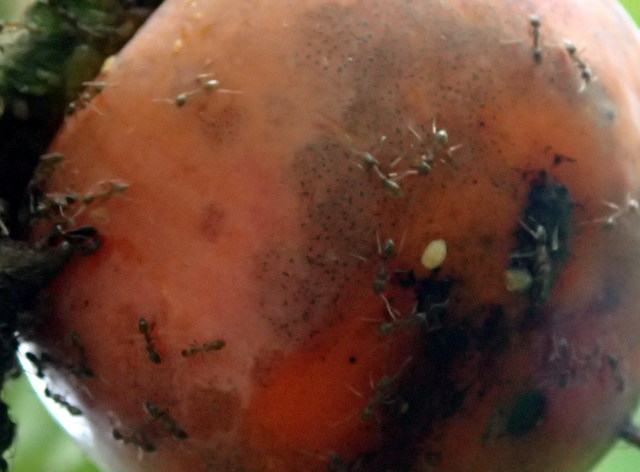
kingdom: Animalia
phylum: Arthropoda
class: Insecta
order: Hymenoptera
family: Formicidae
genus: Linepithema
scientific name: Linepithema humile
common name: Argentine ant
